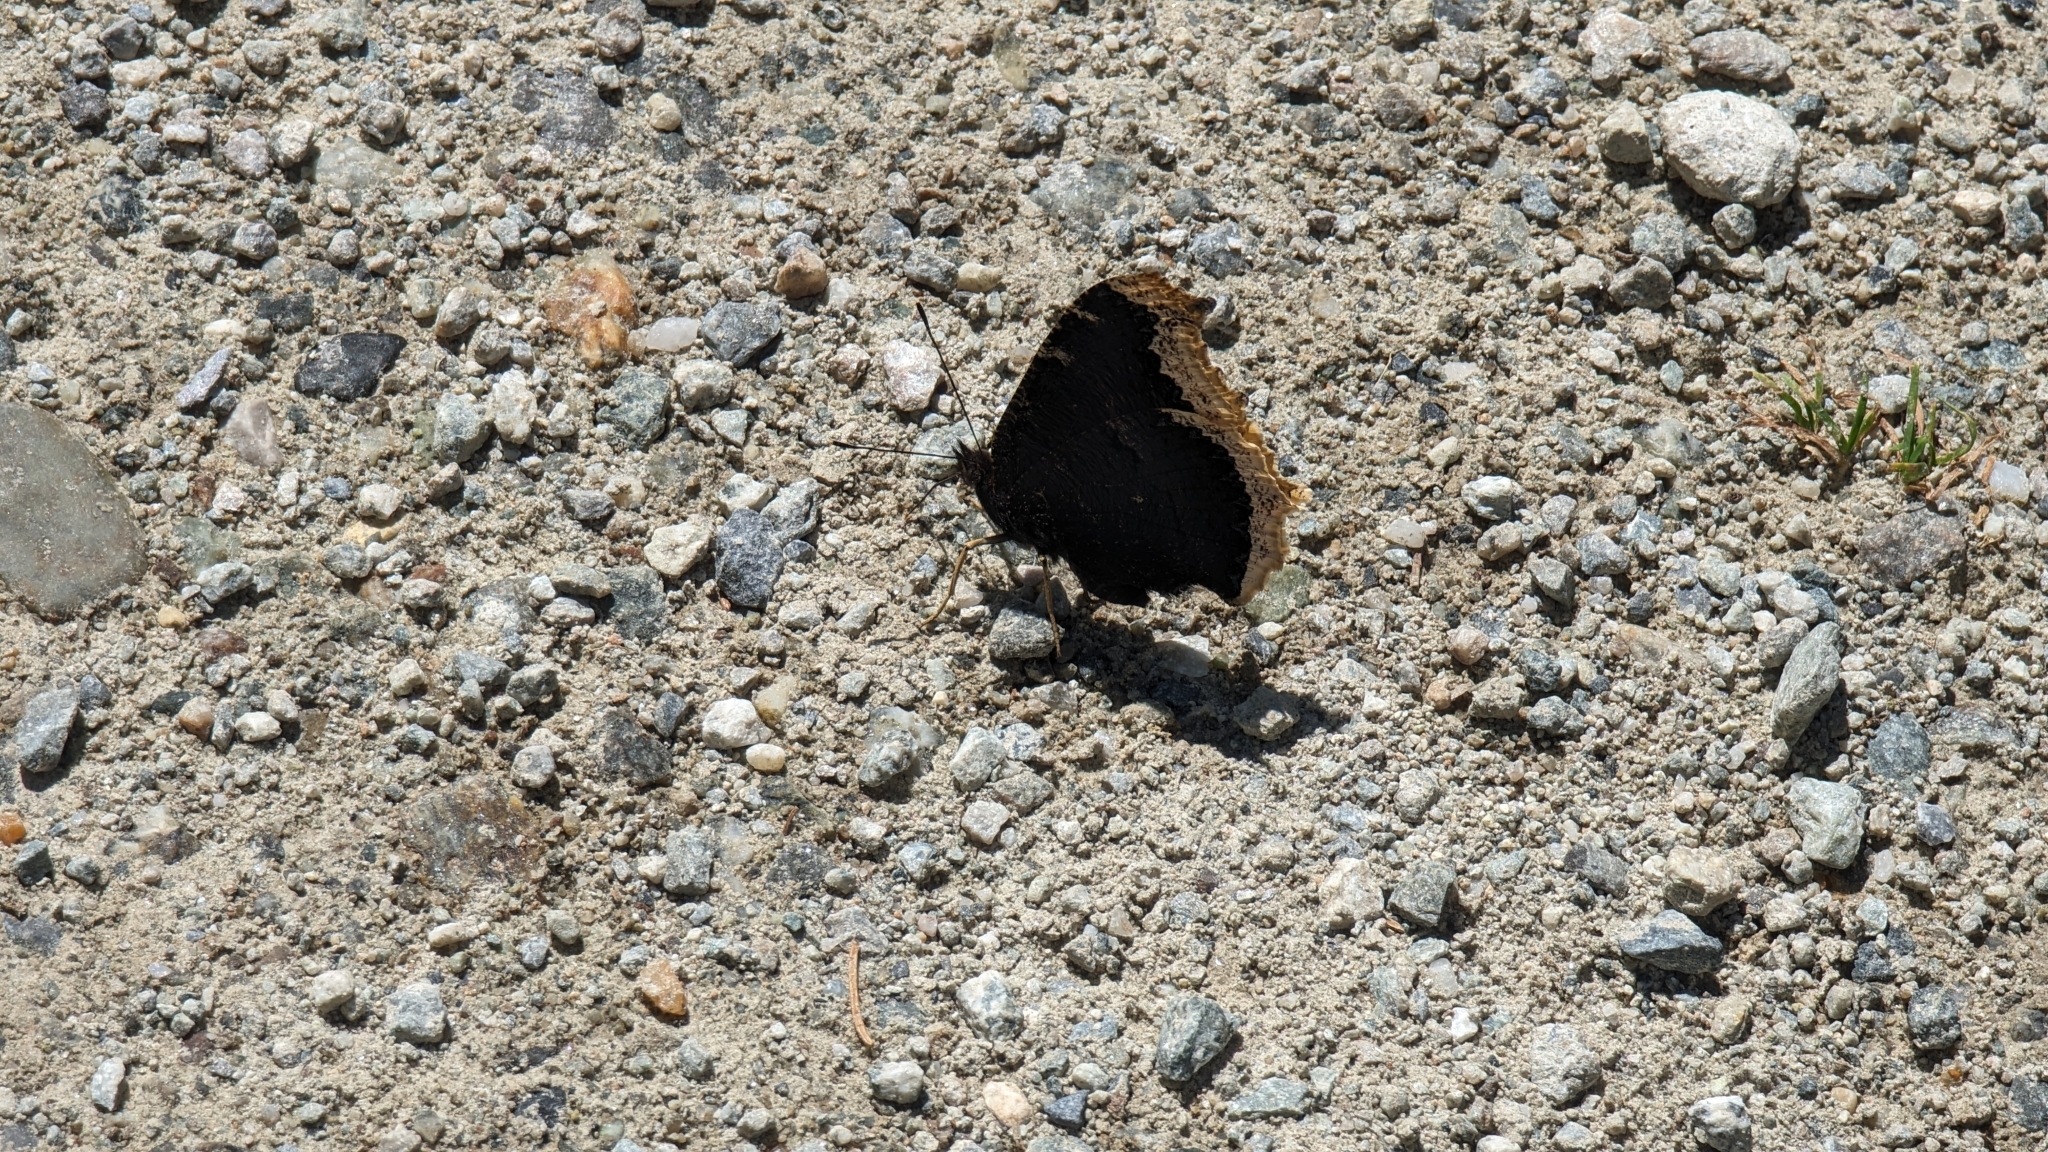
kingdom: Animalia
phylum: Arthropoda
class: Insecta
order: Lepidoptera
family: Nymphalidae
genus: Nymphalis
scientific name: Nymphalis antiopa
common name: Camberwell beauty
